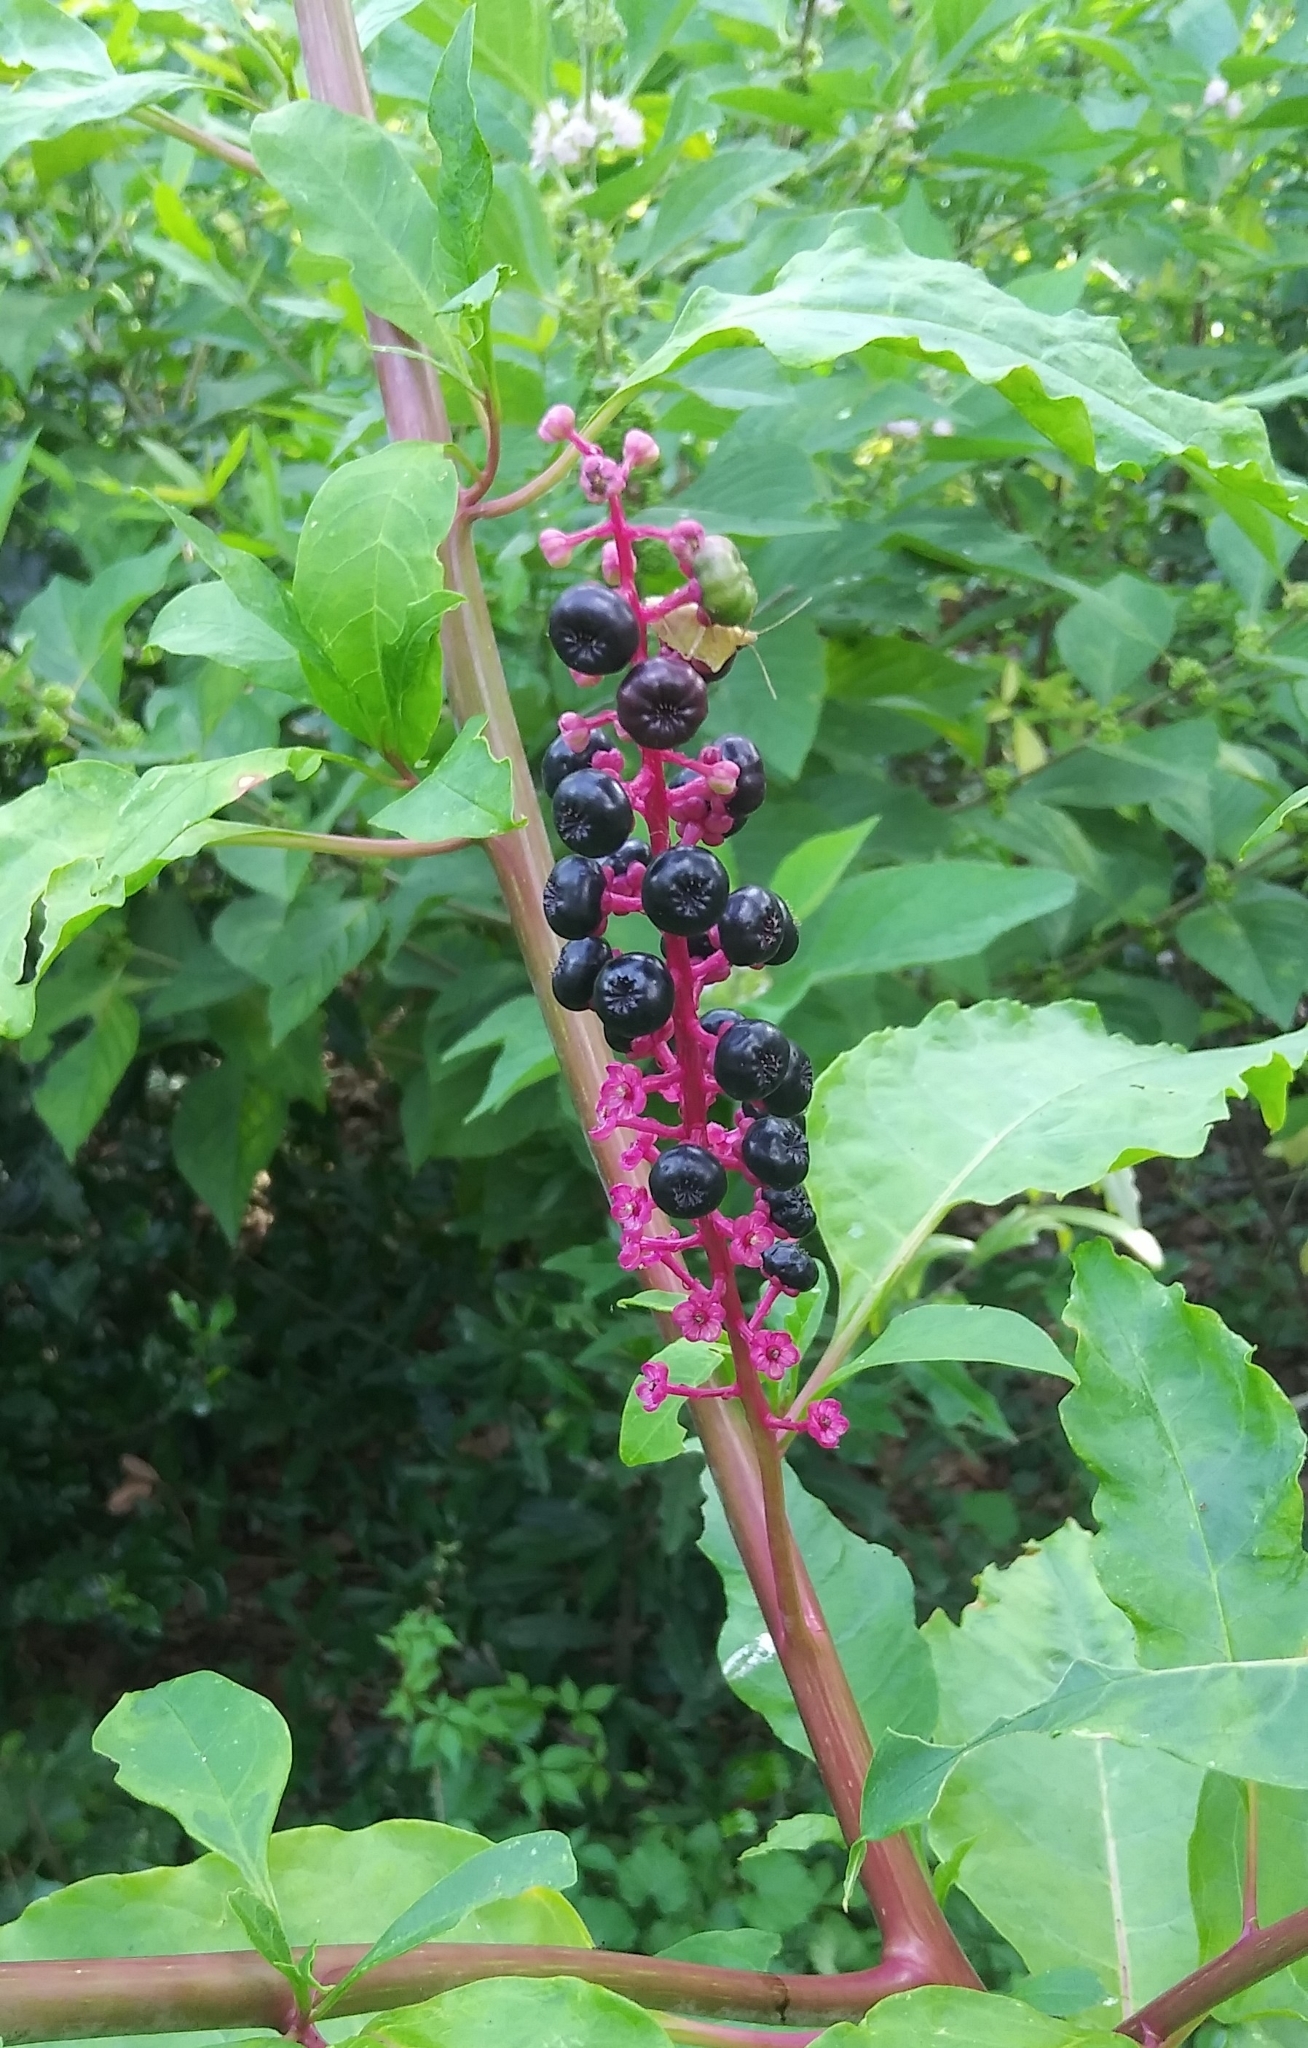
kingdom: Plantae
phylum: Tracheophyta
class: Magnoliopsida
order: Caryophyllales
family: Phytolaccaceae
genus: Phytolacca
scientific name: Phytolacca americana
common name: American pokeweed
